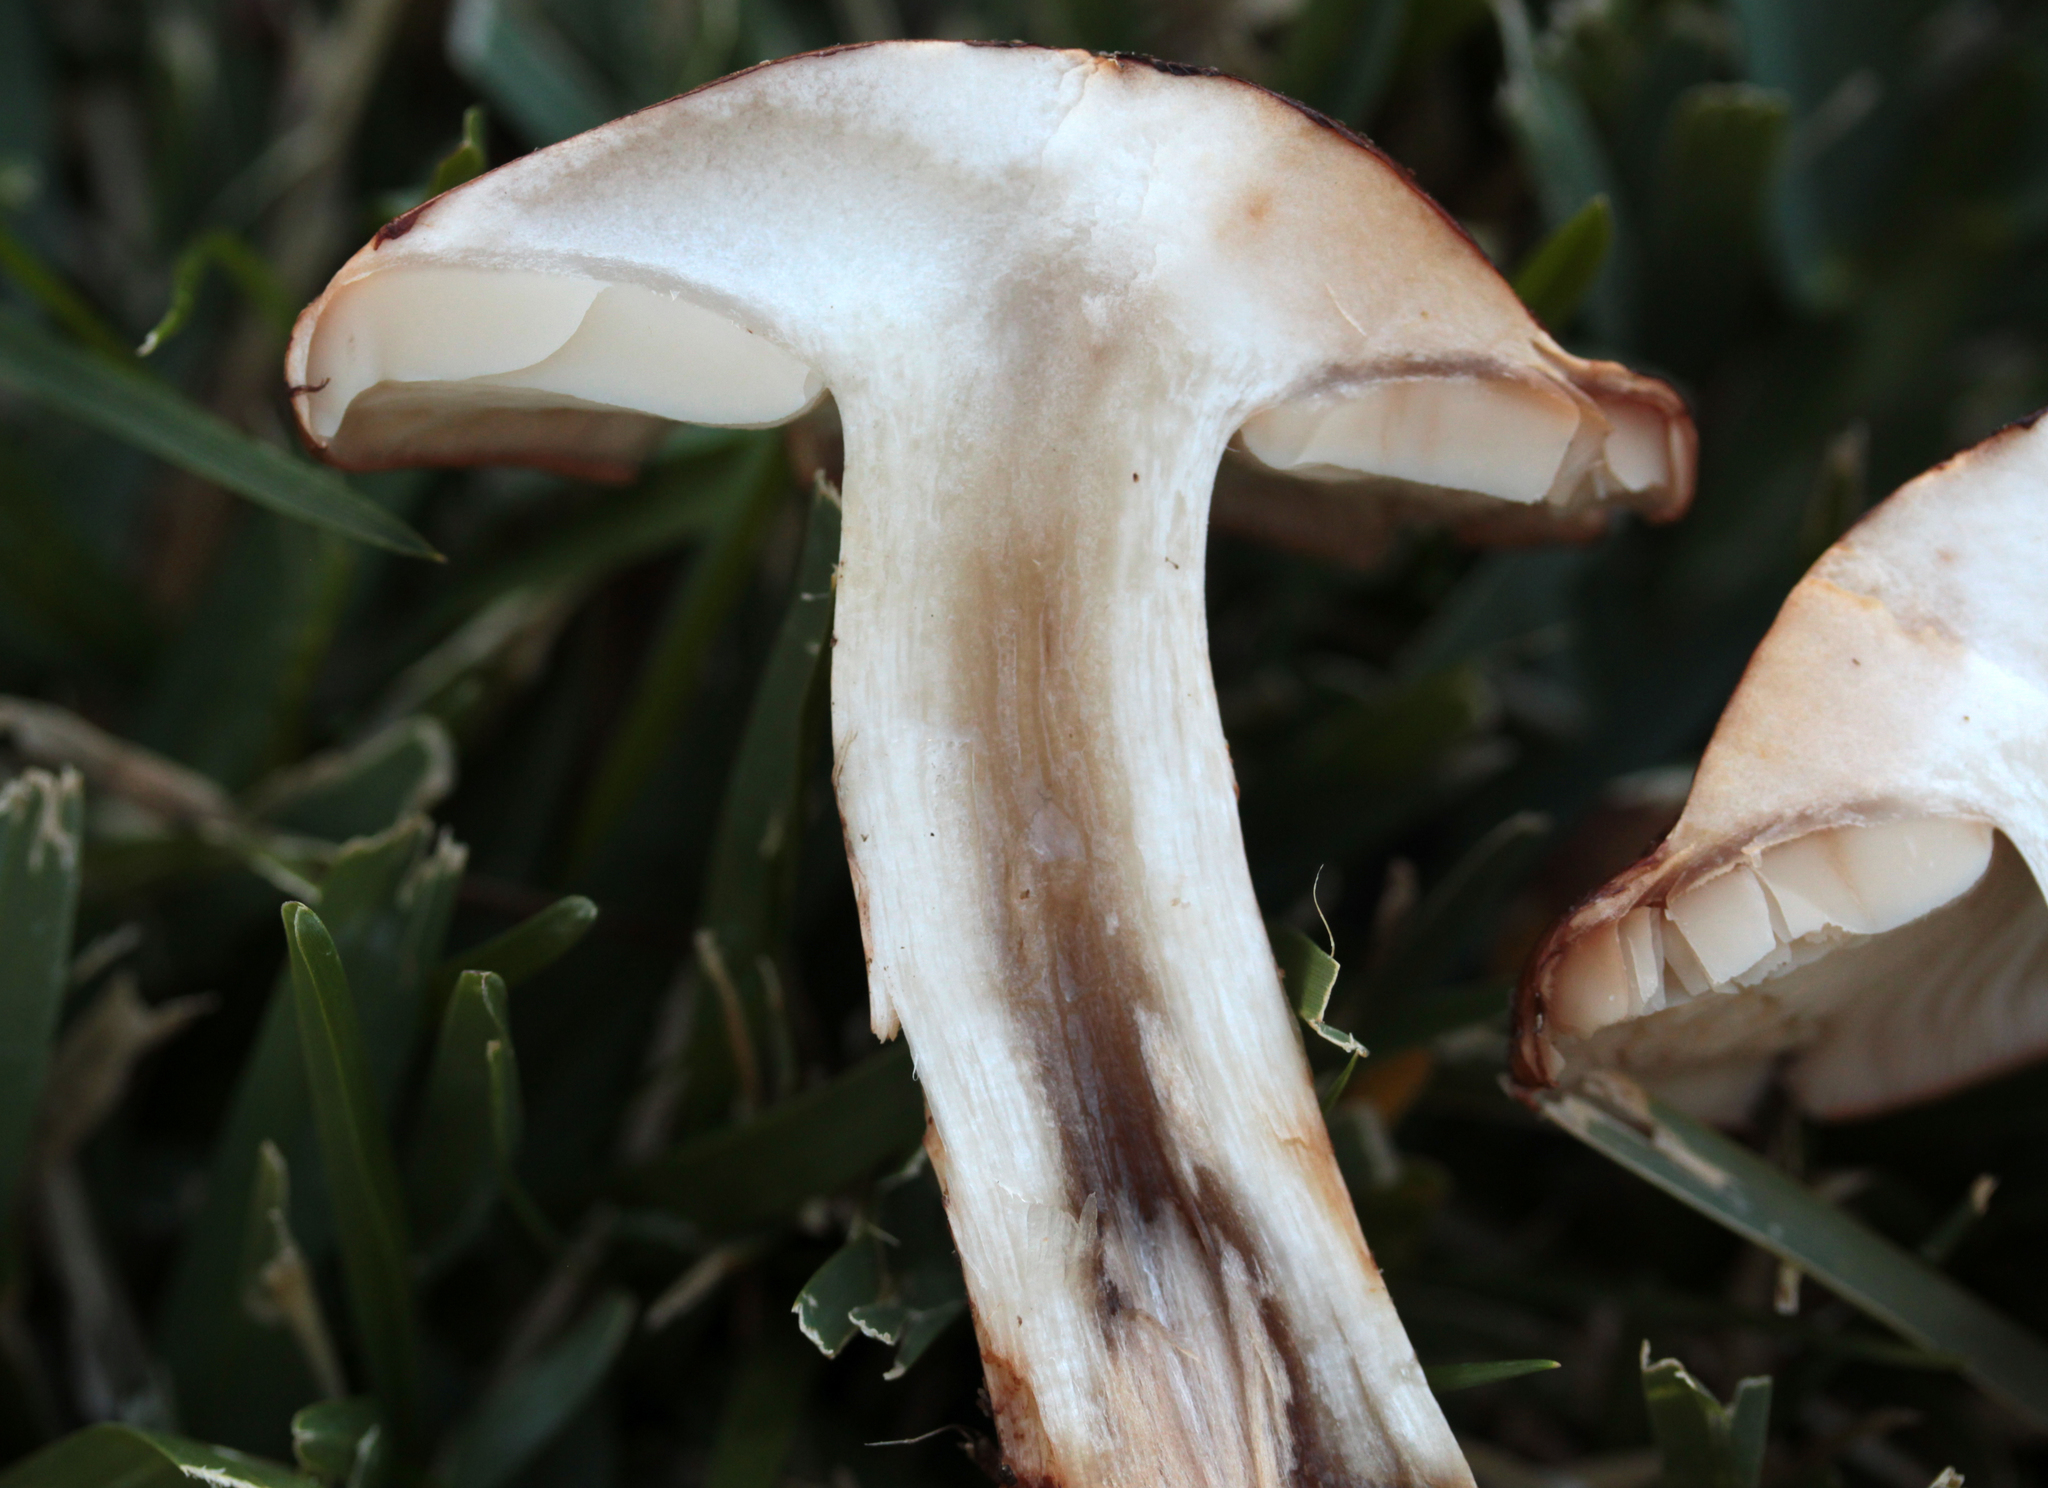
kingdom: Fungi
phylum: Basidiomycota
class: Agaricomycetes
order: Agaricales
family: Tricholomataceae
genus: Tricholoma
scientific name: Tricholoma fracticum
